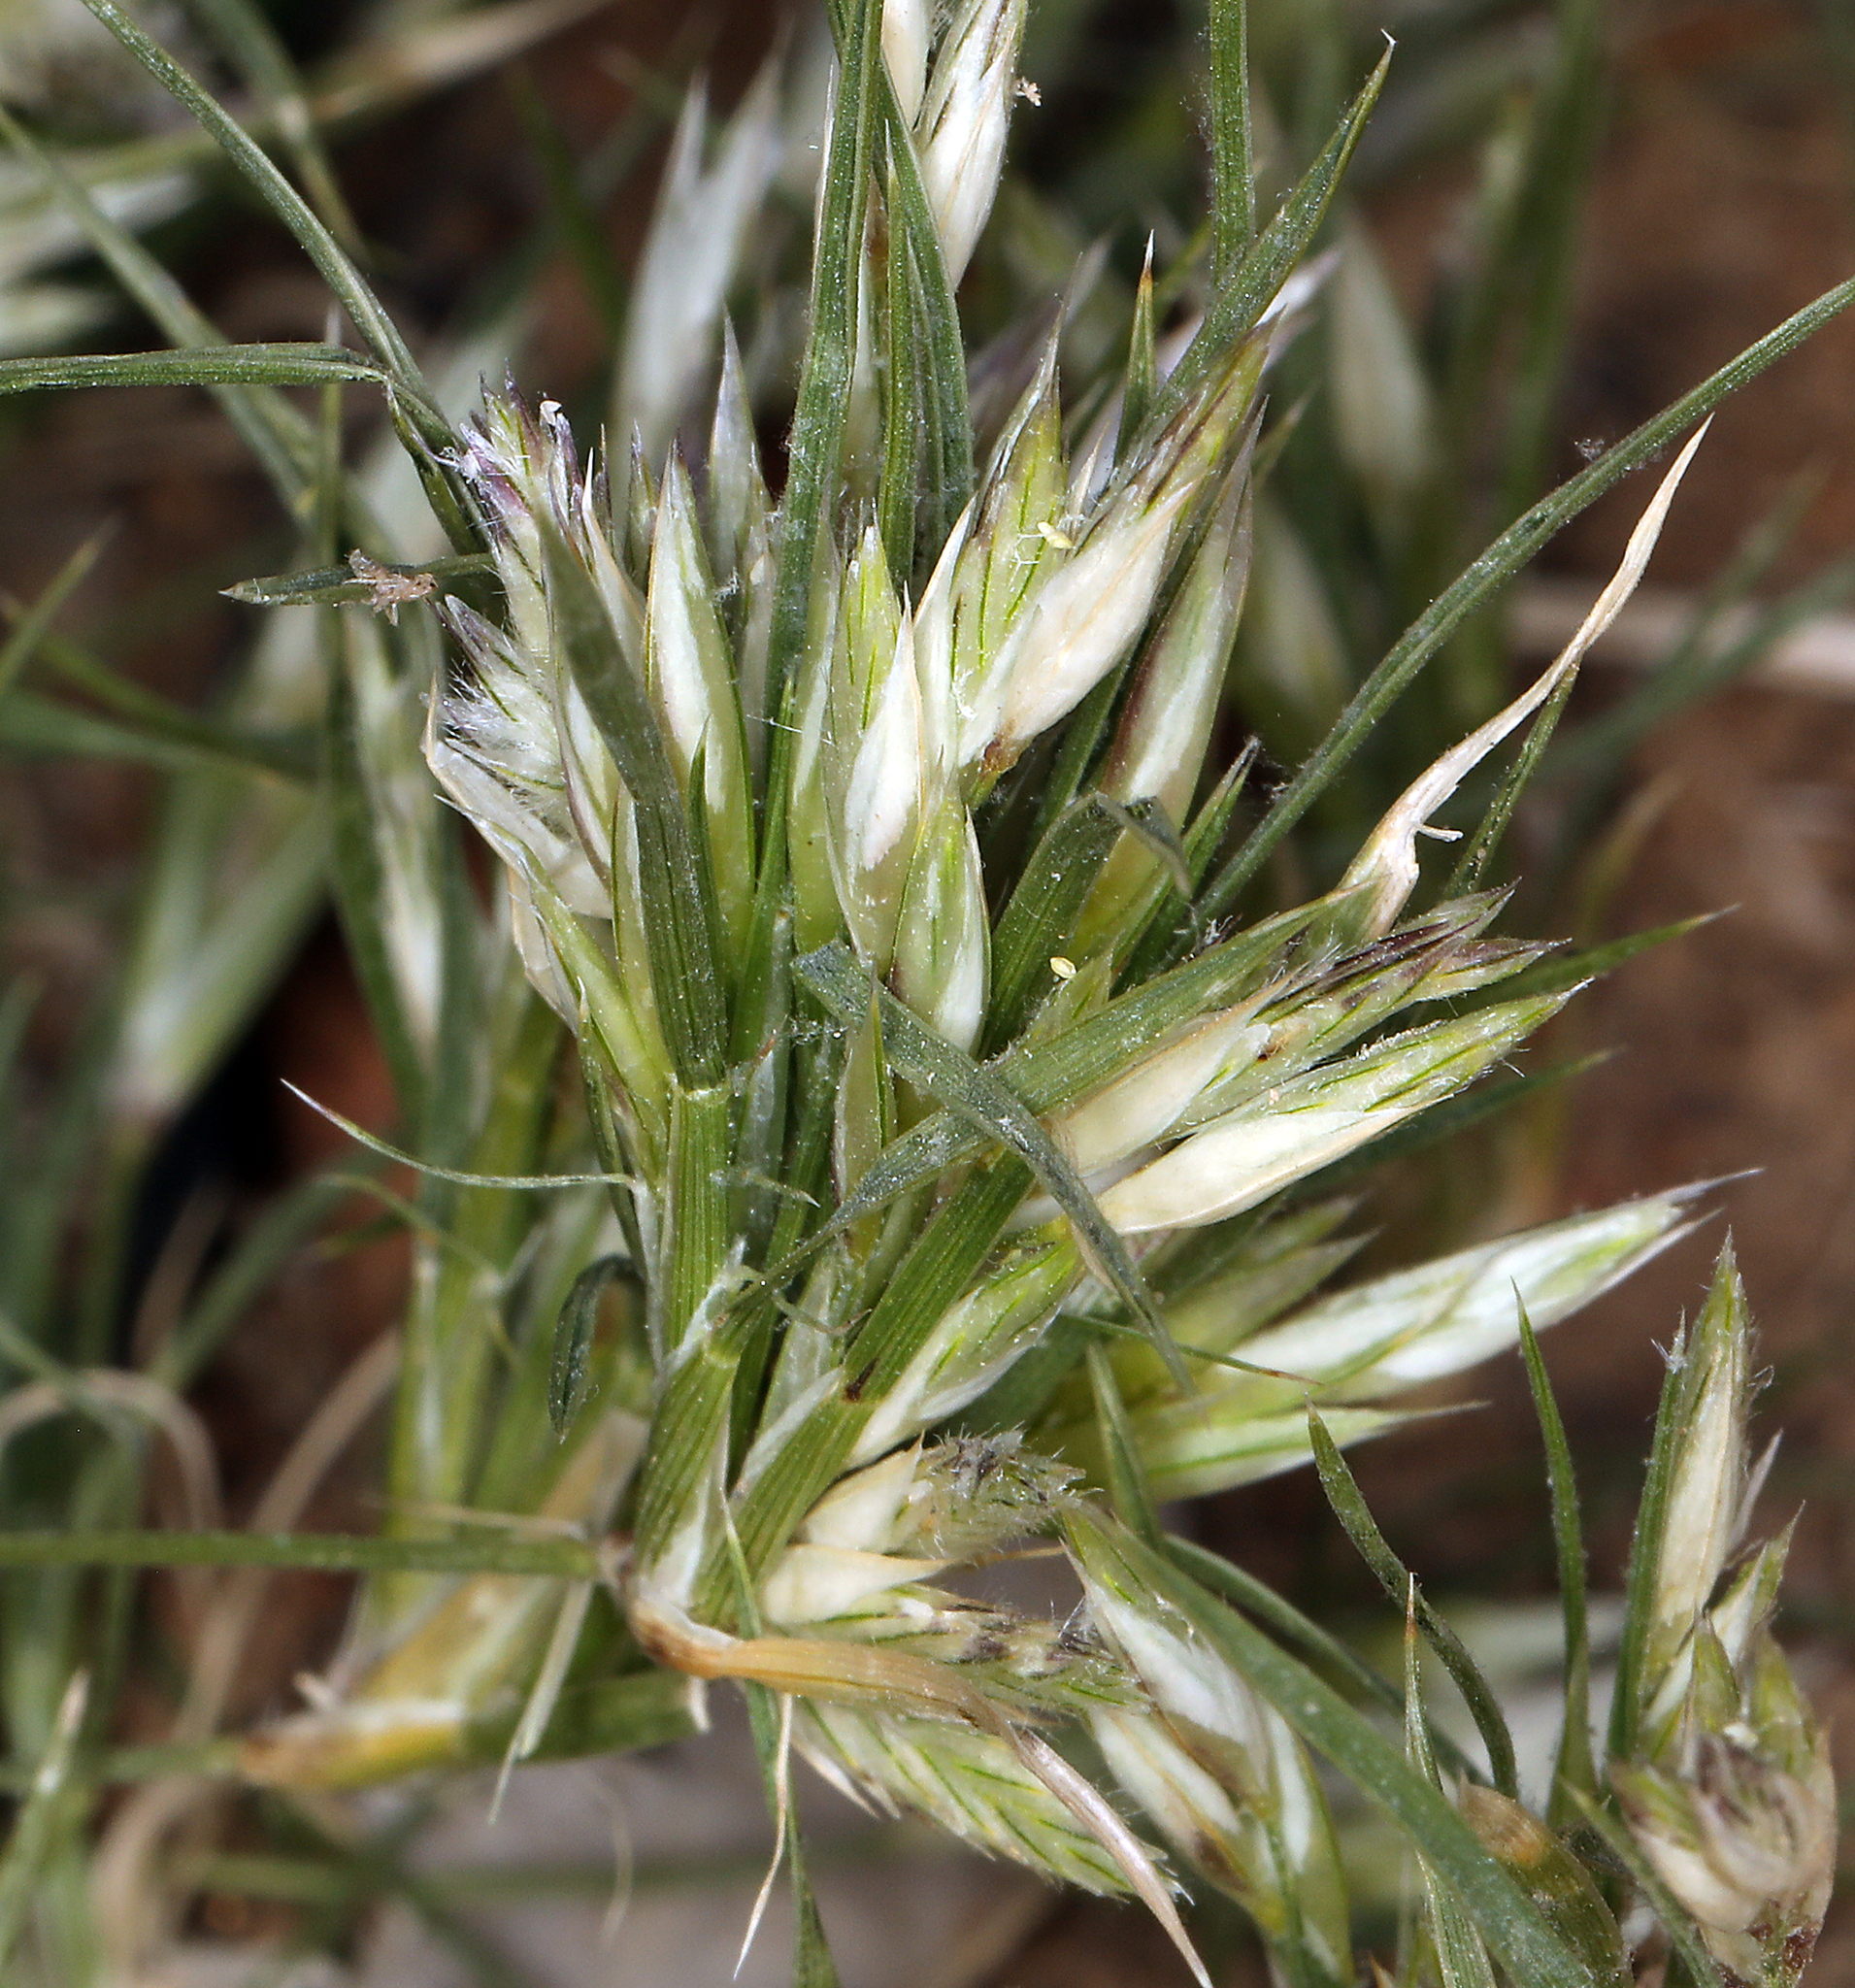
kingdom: Plantae
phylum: Tracheophyta
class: Liliopsida
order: Poales
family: Poaceae
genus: Dasyochloa
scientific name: Dasyochloa pulchella
